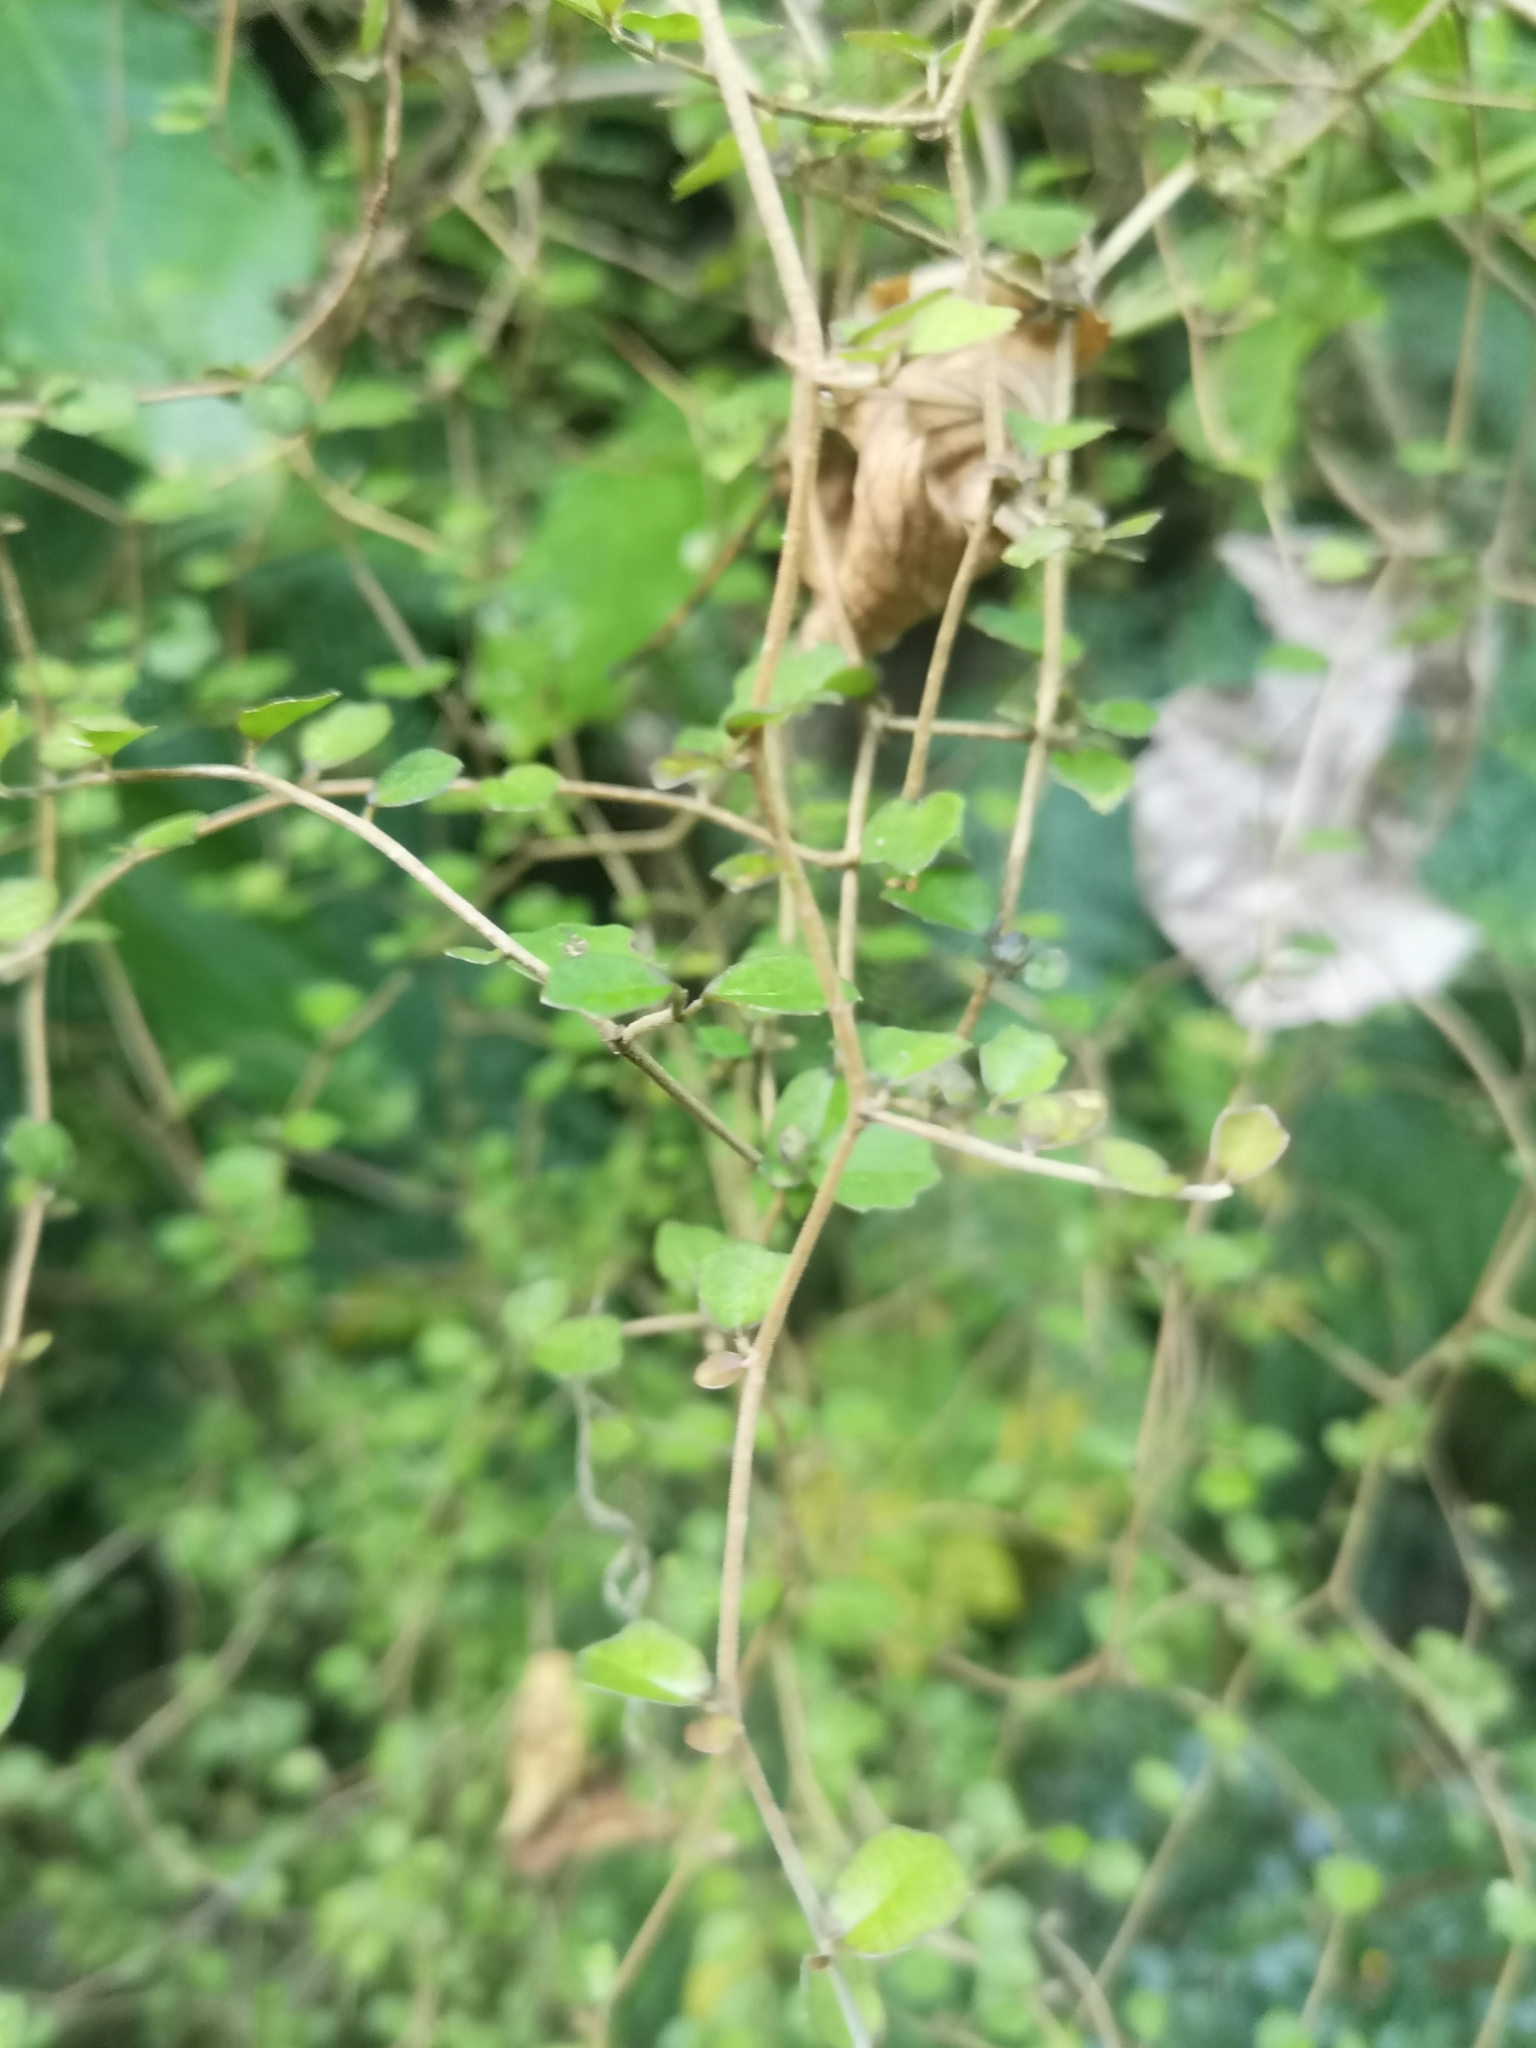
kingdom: Plantae
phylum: Tracheophyta
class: Magnoliopsida
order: Apiales
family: Pennantiaceae
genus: Pennantia
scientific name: Pennantia corymbosa
